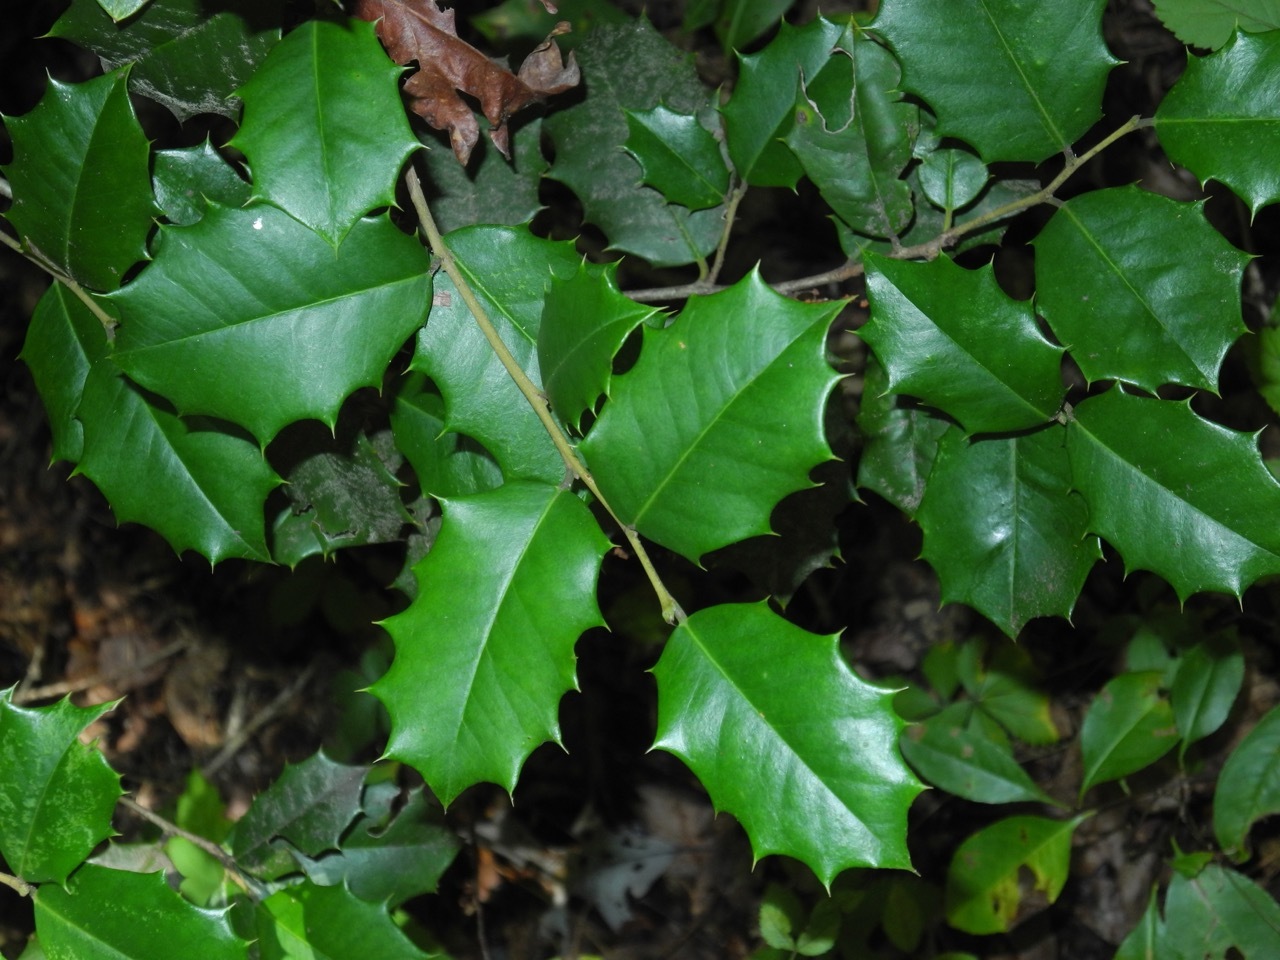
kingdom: Plantae
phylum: Tracheophyta
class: Magnoliopsida
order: Aquifoliales
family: Aquifoliaceae
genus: Ilex
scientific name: Ilex opaca
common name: American holly
